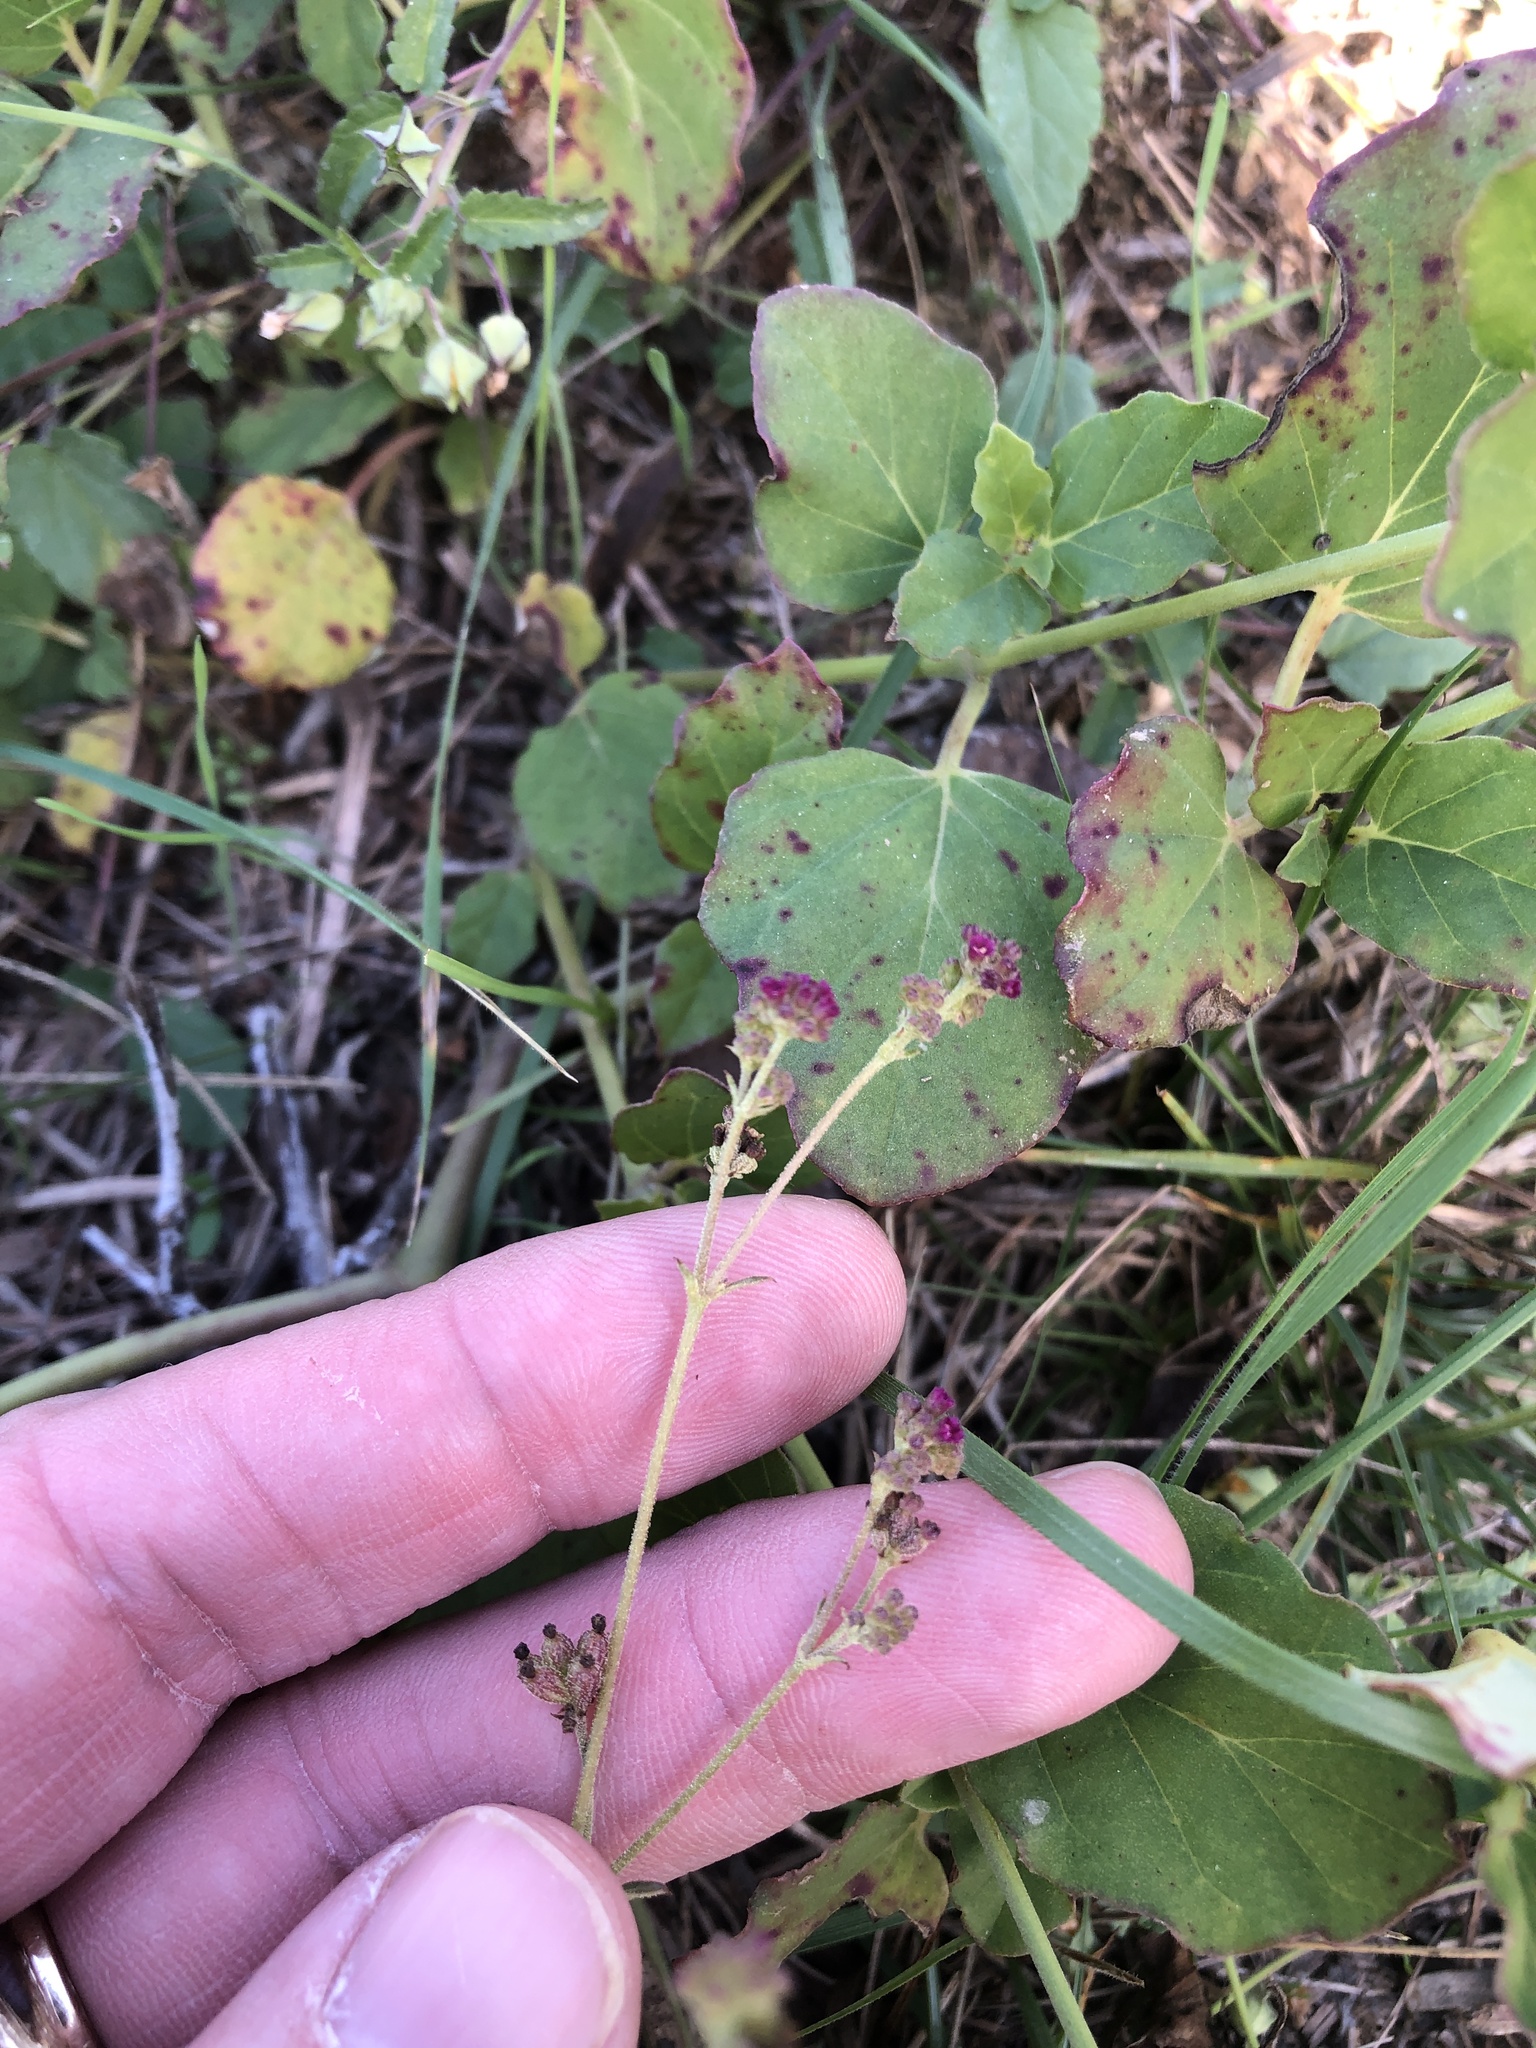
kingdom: Plantae
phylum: Tracheophyta
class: Magnoliopsida
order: Caryophyllales
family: Nyctaginaceae
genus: Boerhavia
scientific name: Boerhavia coccinea
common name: Scarlet spiderling
